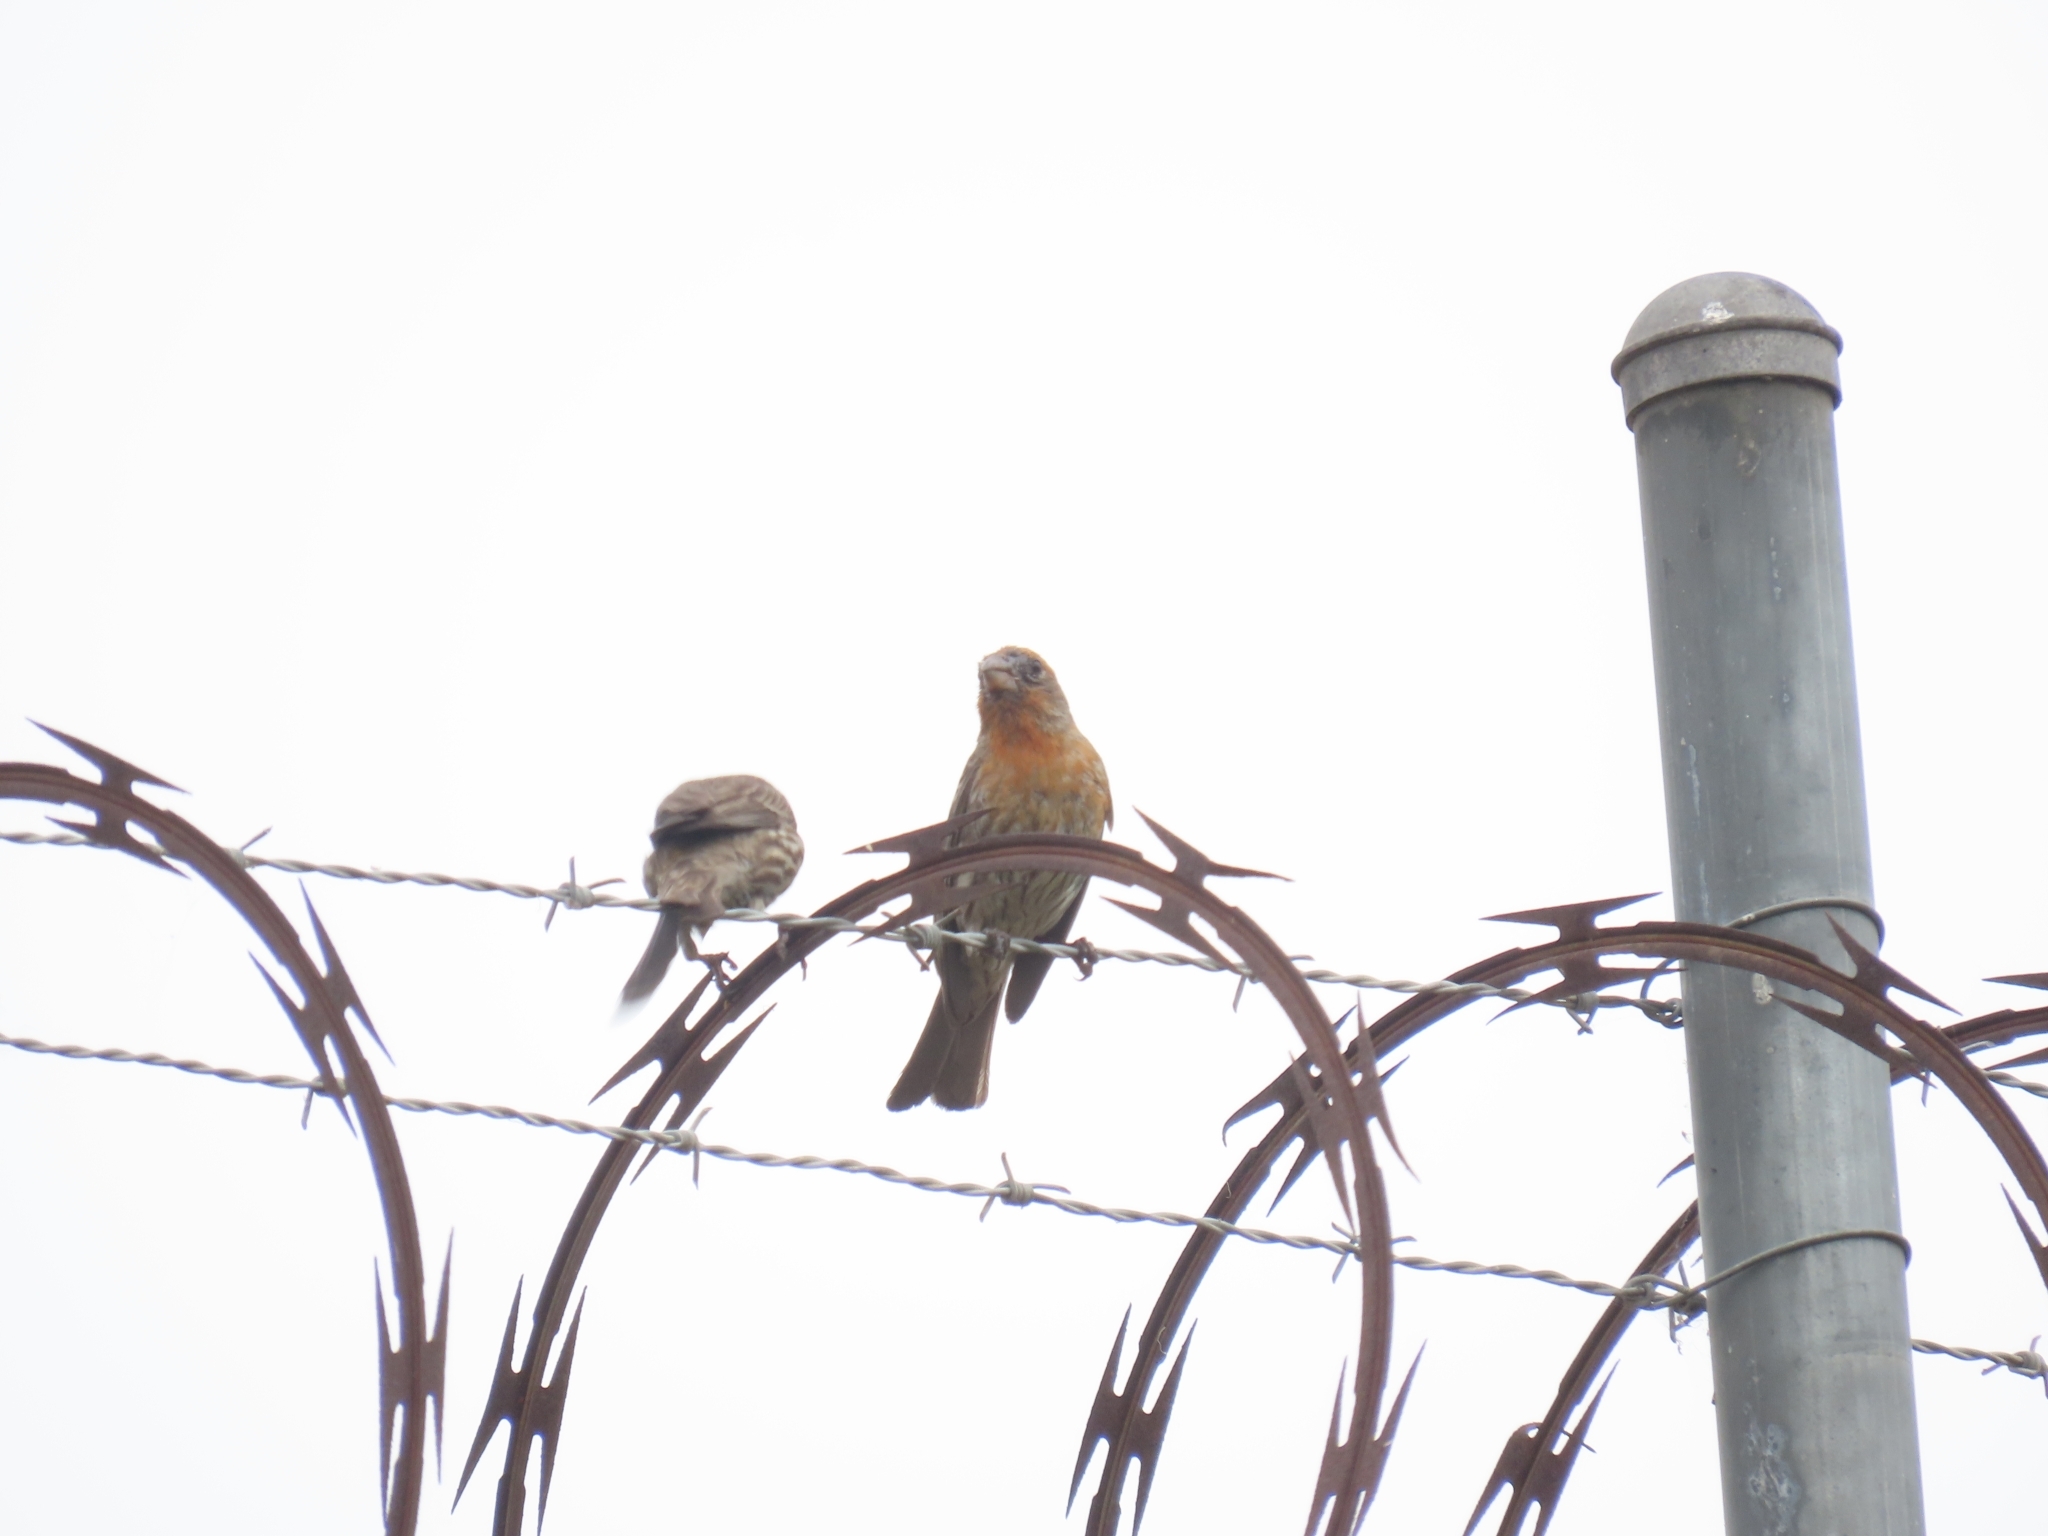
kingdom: Animalia
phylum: Chordata
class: Aves
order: Passeriformes
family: Fringillidae
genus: Haemorhous
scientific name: Haemorhous mexicanus
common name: House finch
